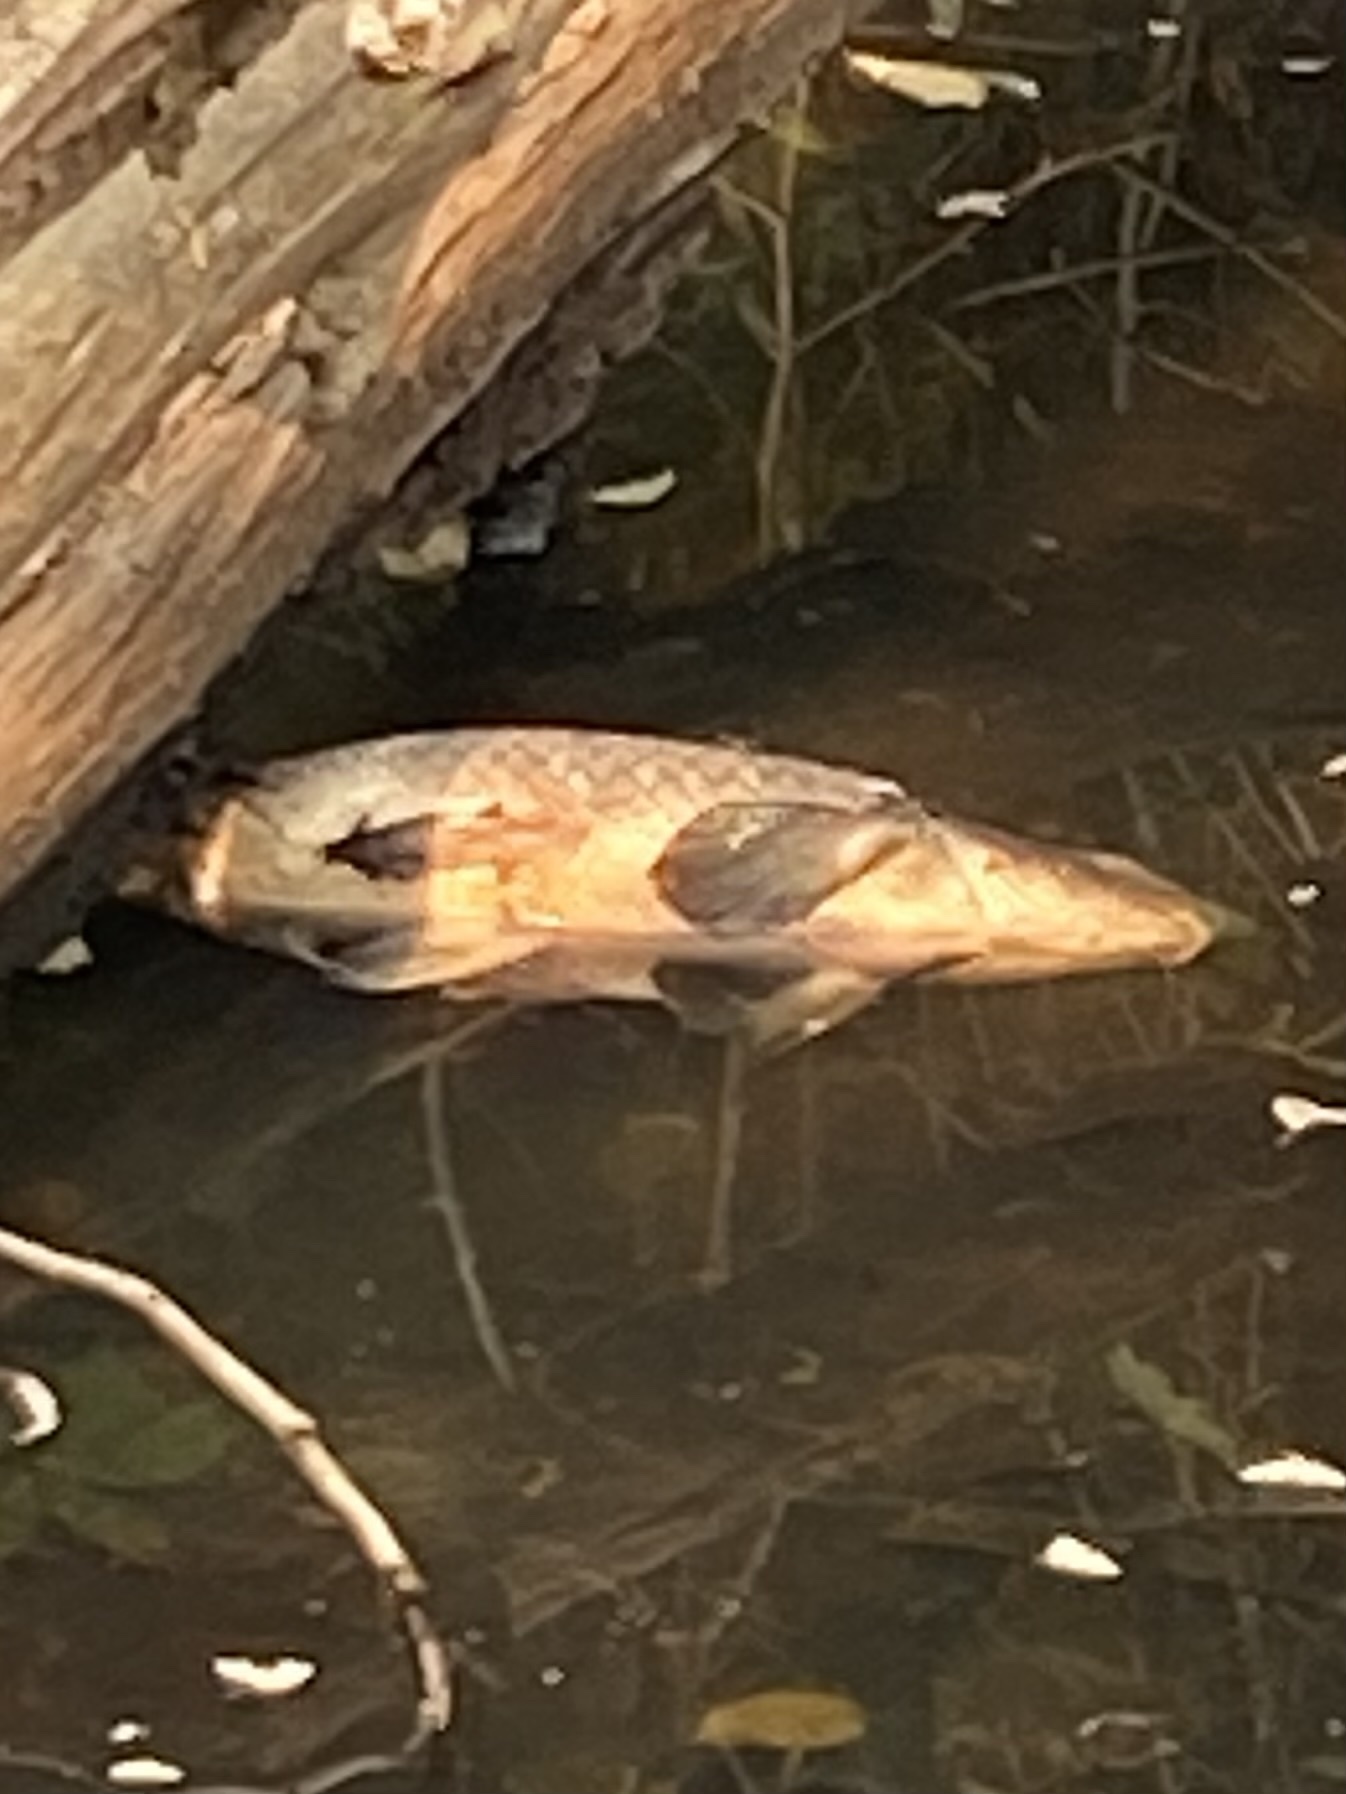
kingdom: Animalia
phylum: Chordata
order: Cypriniformes
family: Cyprinidae
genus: Cyprinus
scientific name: Cyprinus carpio
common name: Common carp
